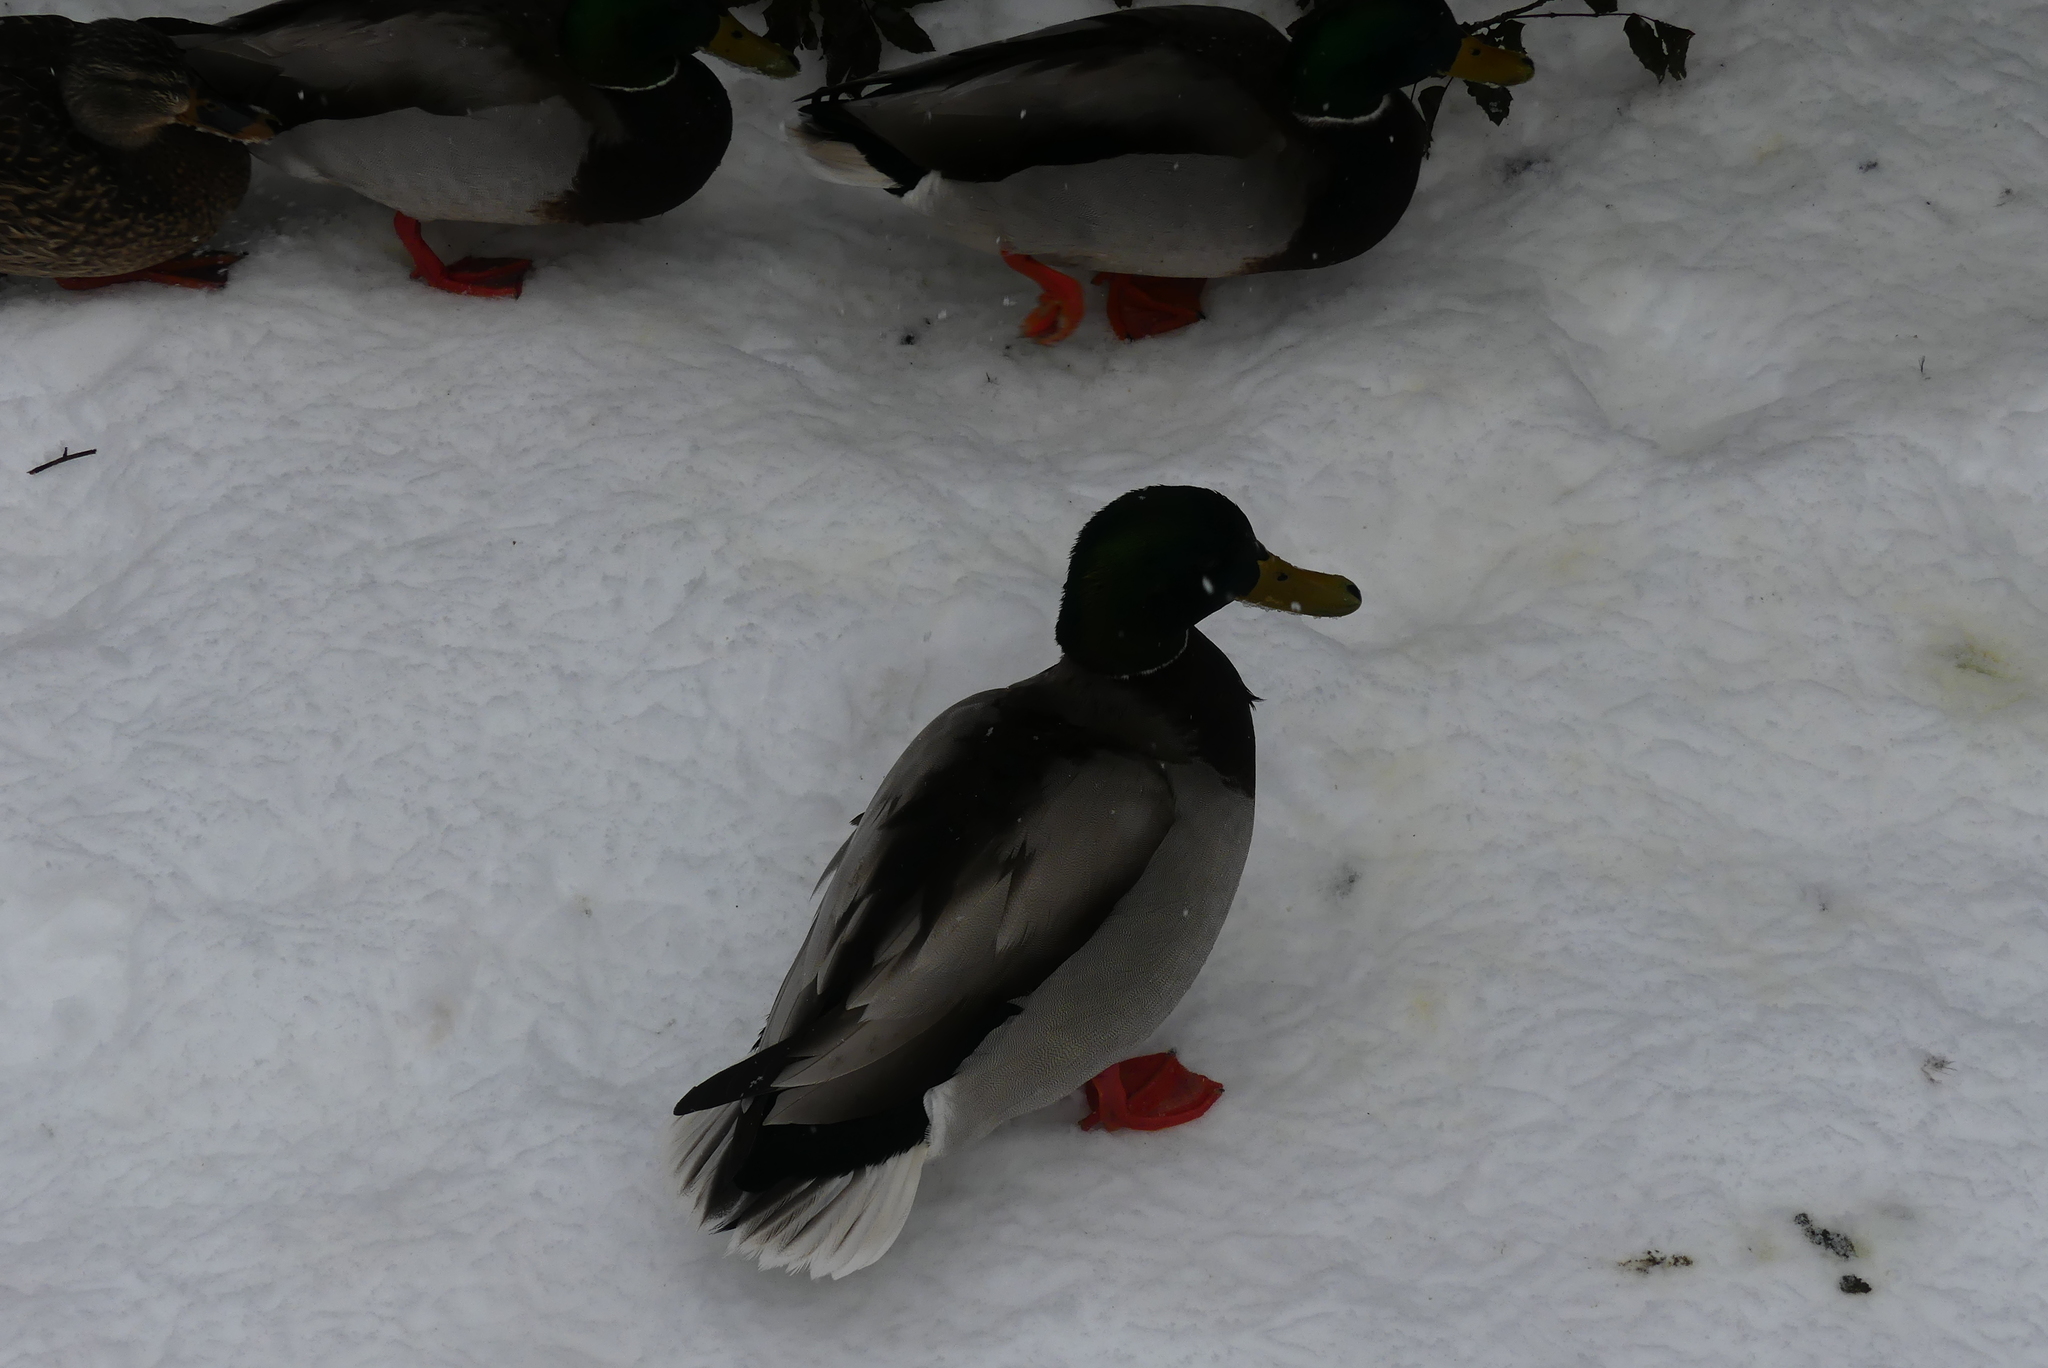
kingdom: Animalia
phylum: Chordata
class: Aves
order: Anseriformes
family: Anatidae
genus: Anas
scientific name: Anas platyrhynchos
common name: Mallard
